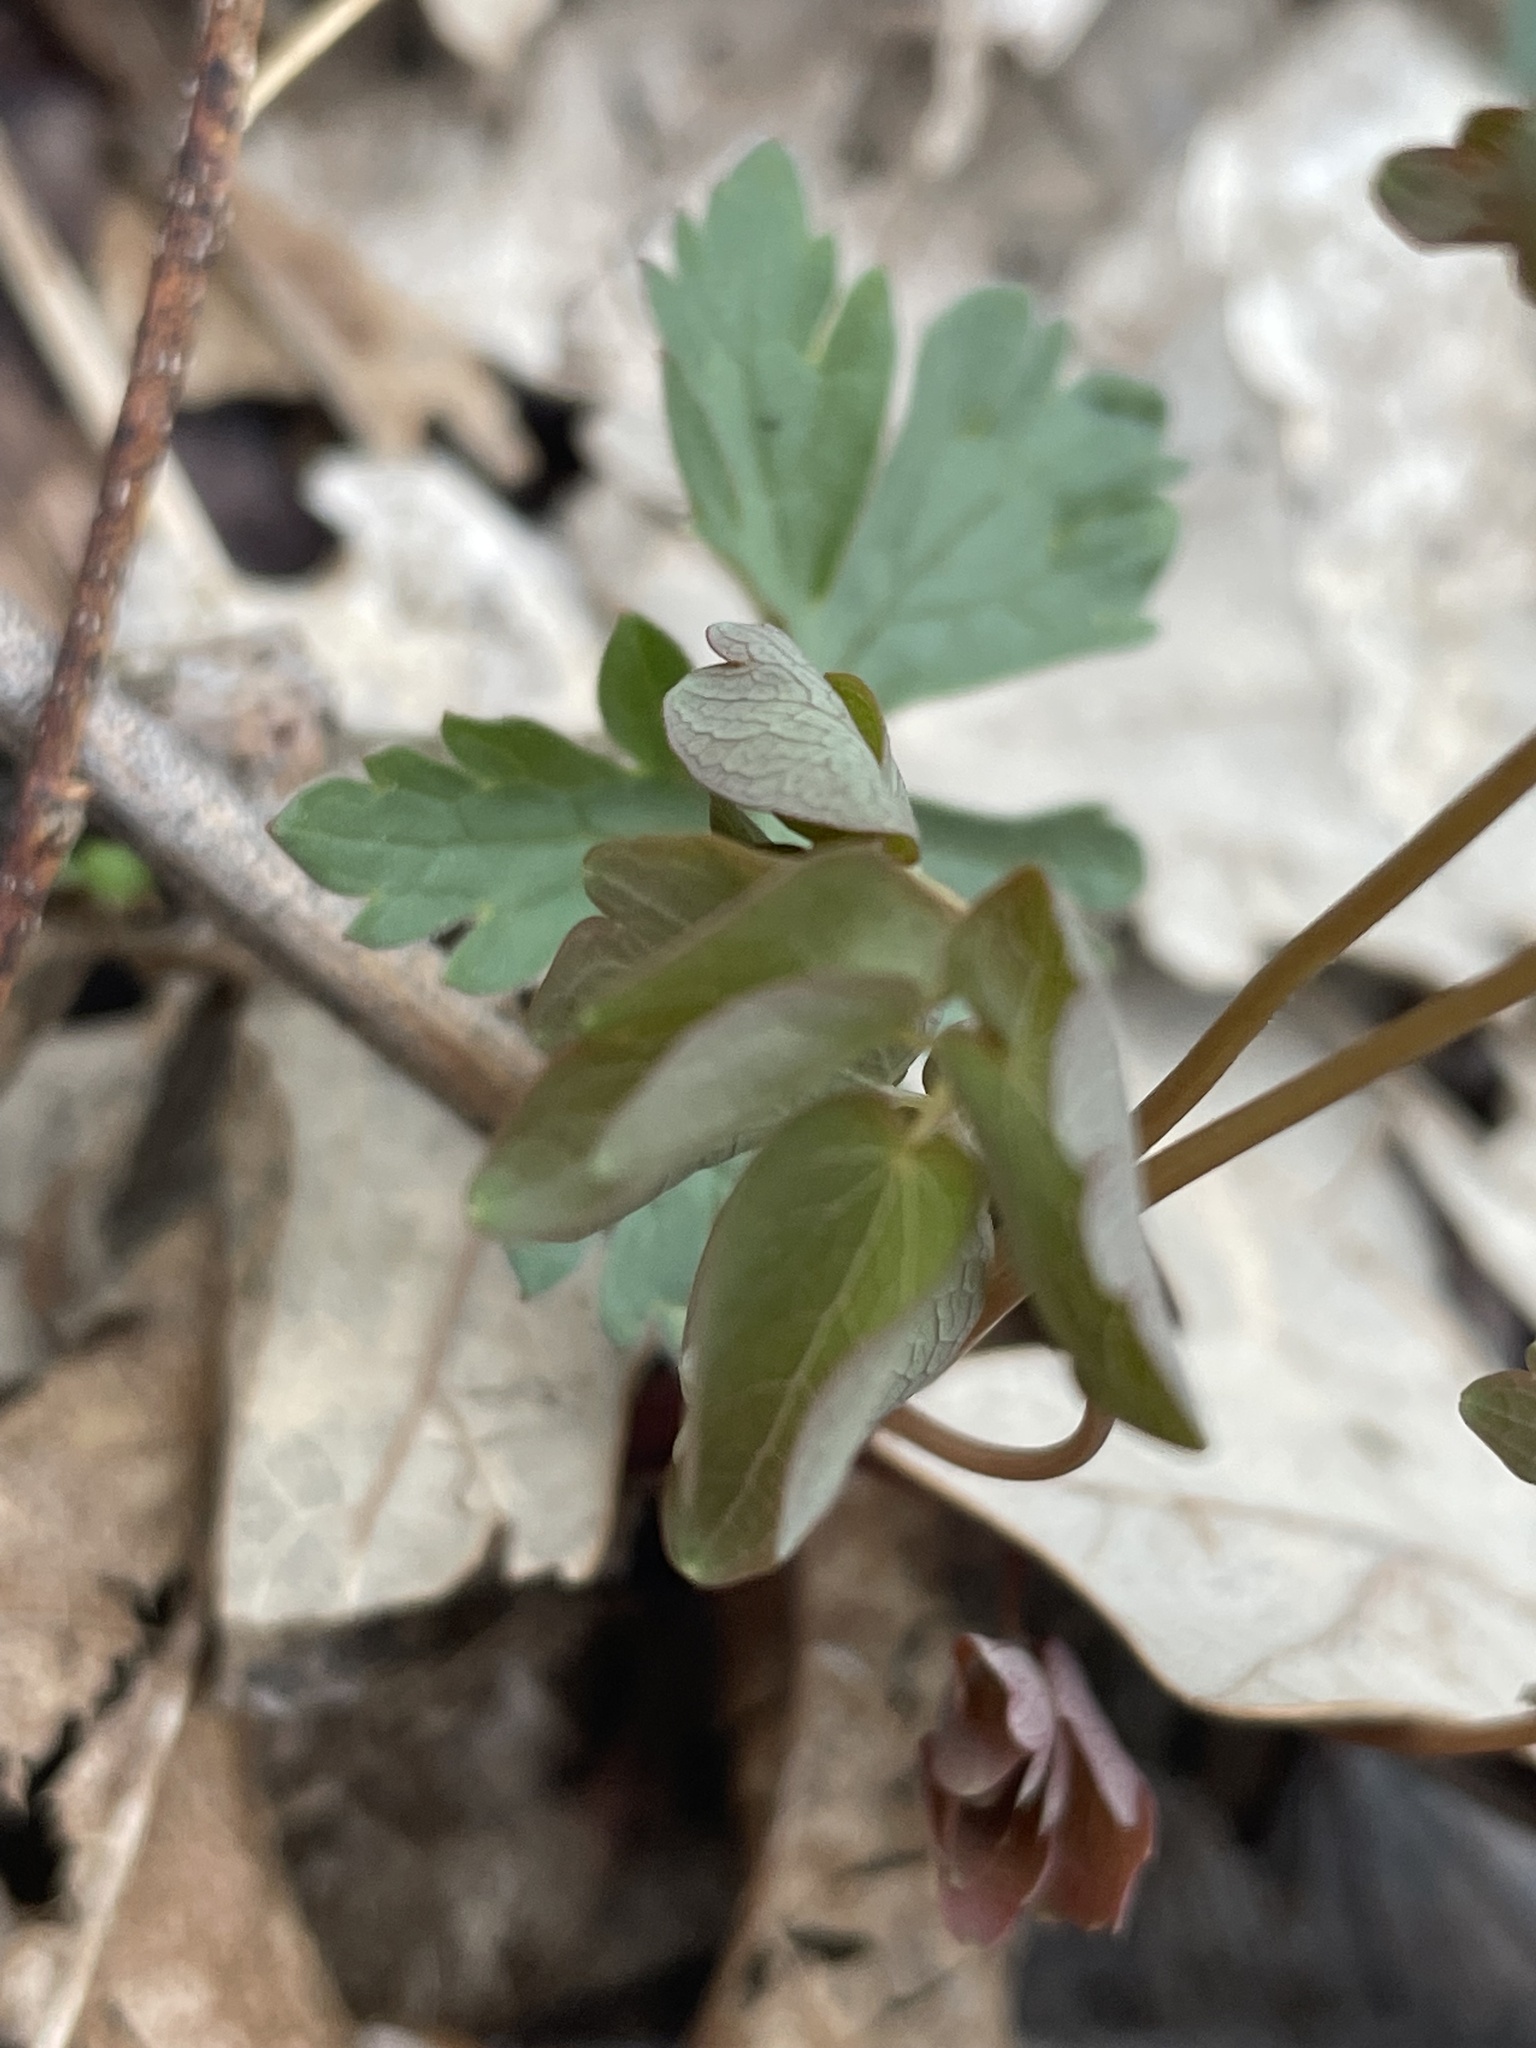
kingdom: Plantae
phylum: Tracheophyta
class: Magnoliopsida
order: Ranunculales
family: Ranunculaceae
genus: Thalictrum
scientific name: Thalictrum thalictroides
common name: Rue-anemone
